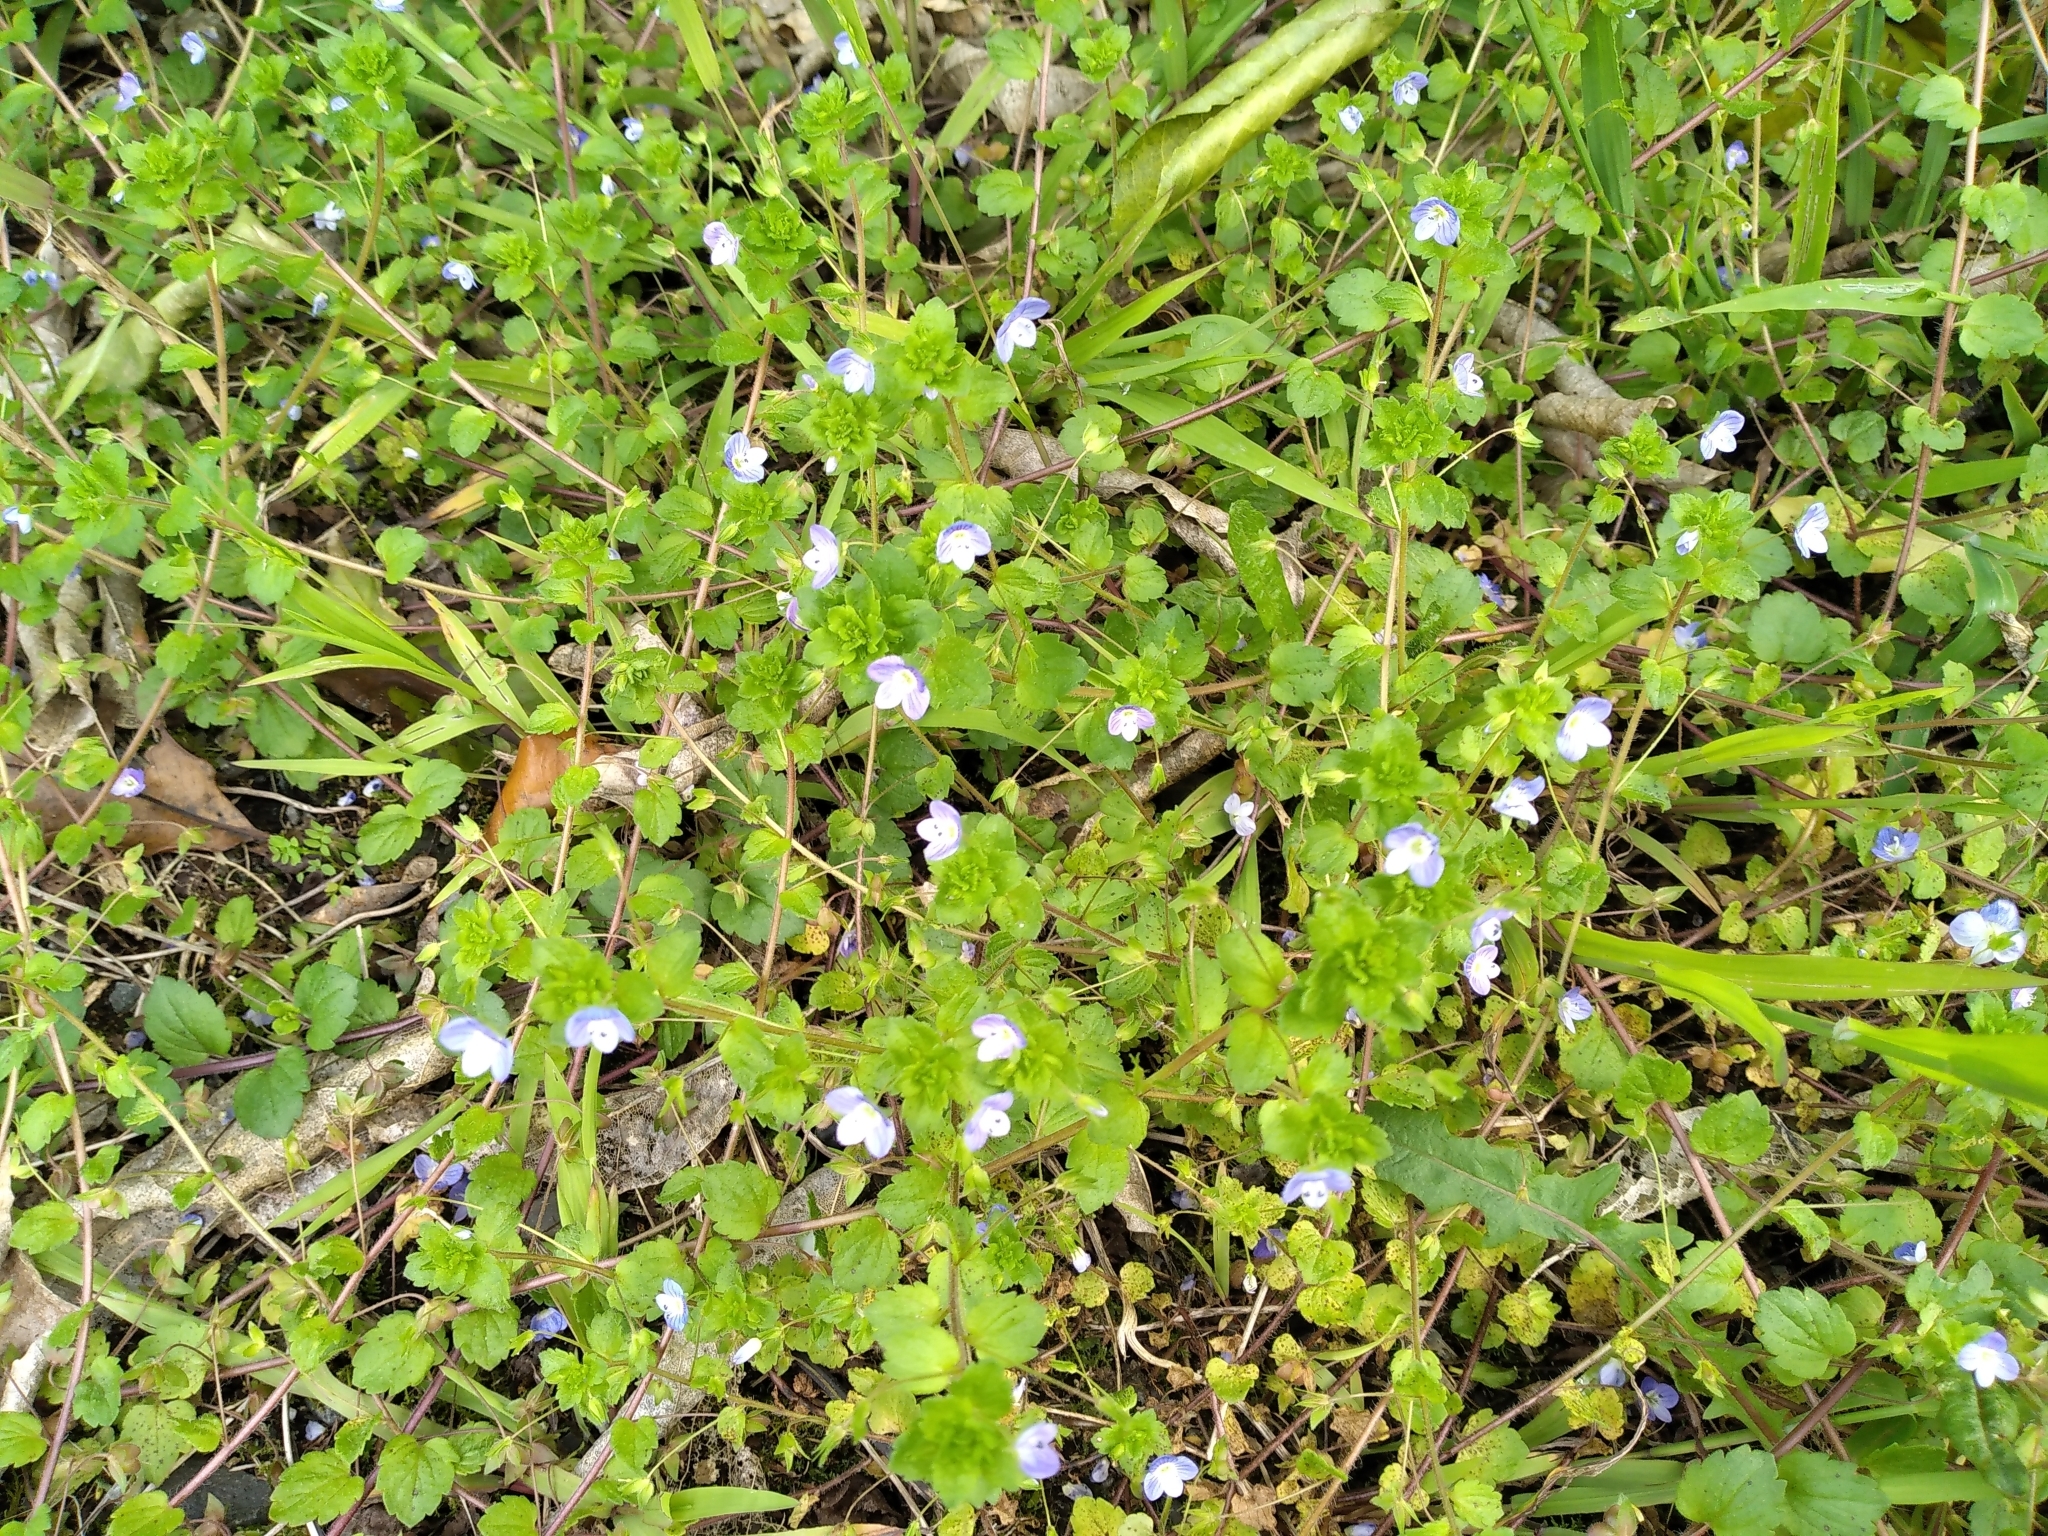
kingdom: Plantae
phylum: Tracheophyta
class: Magnoliopsida
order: Lamiales
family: Plantaginaceae
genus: Veronica
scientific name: Veronica persica
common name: Common field-speedwell
